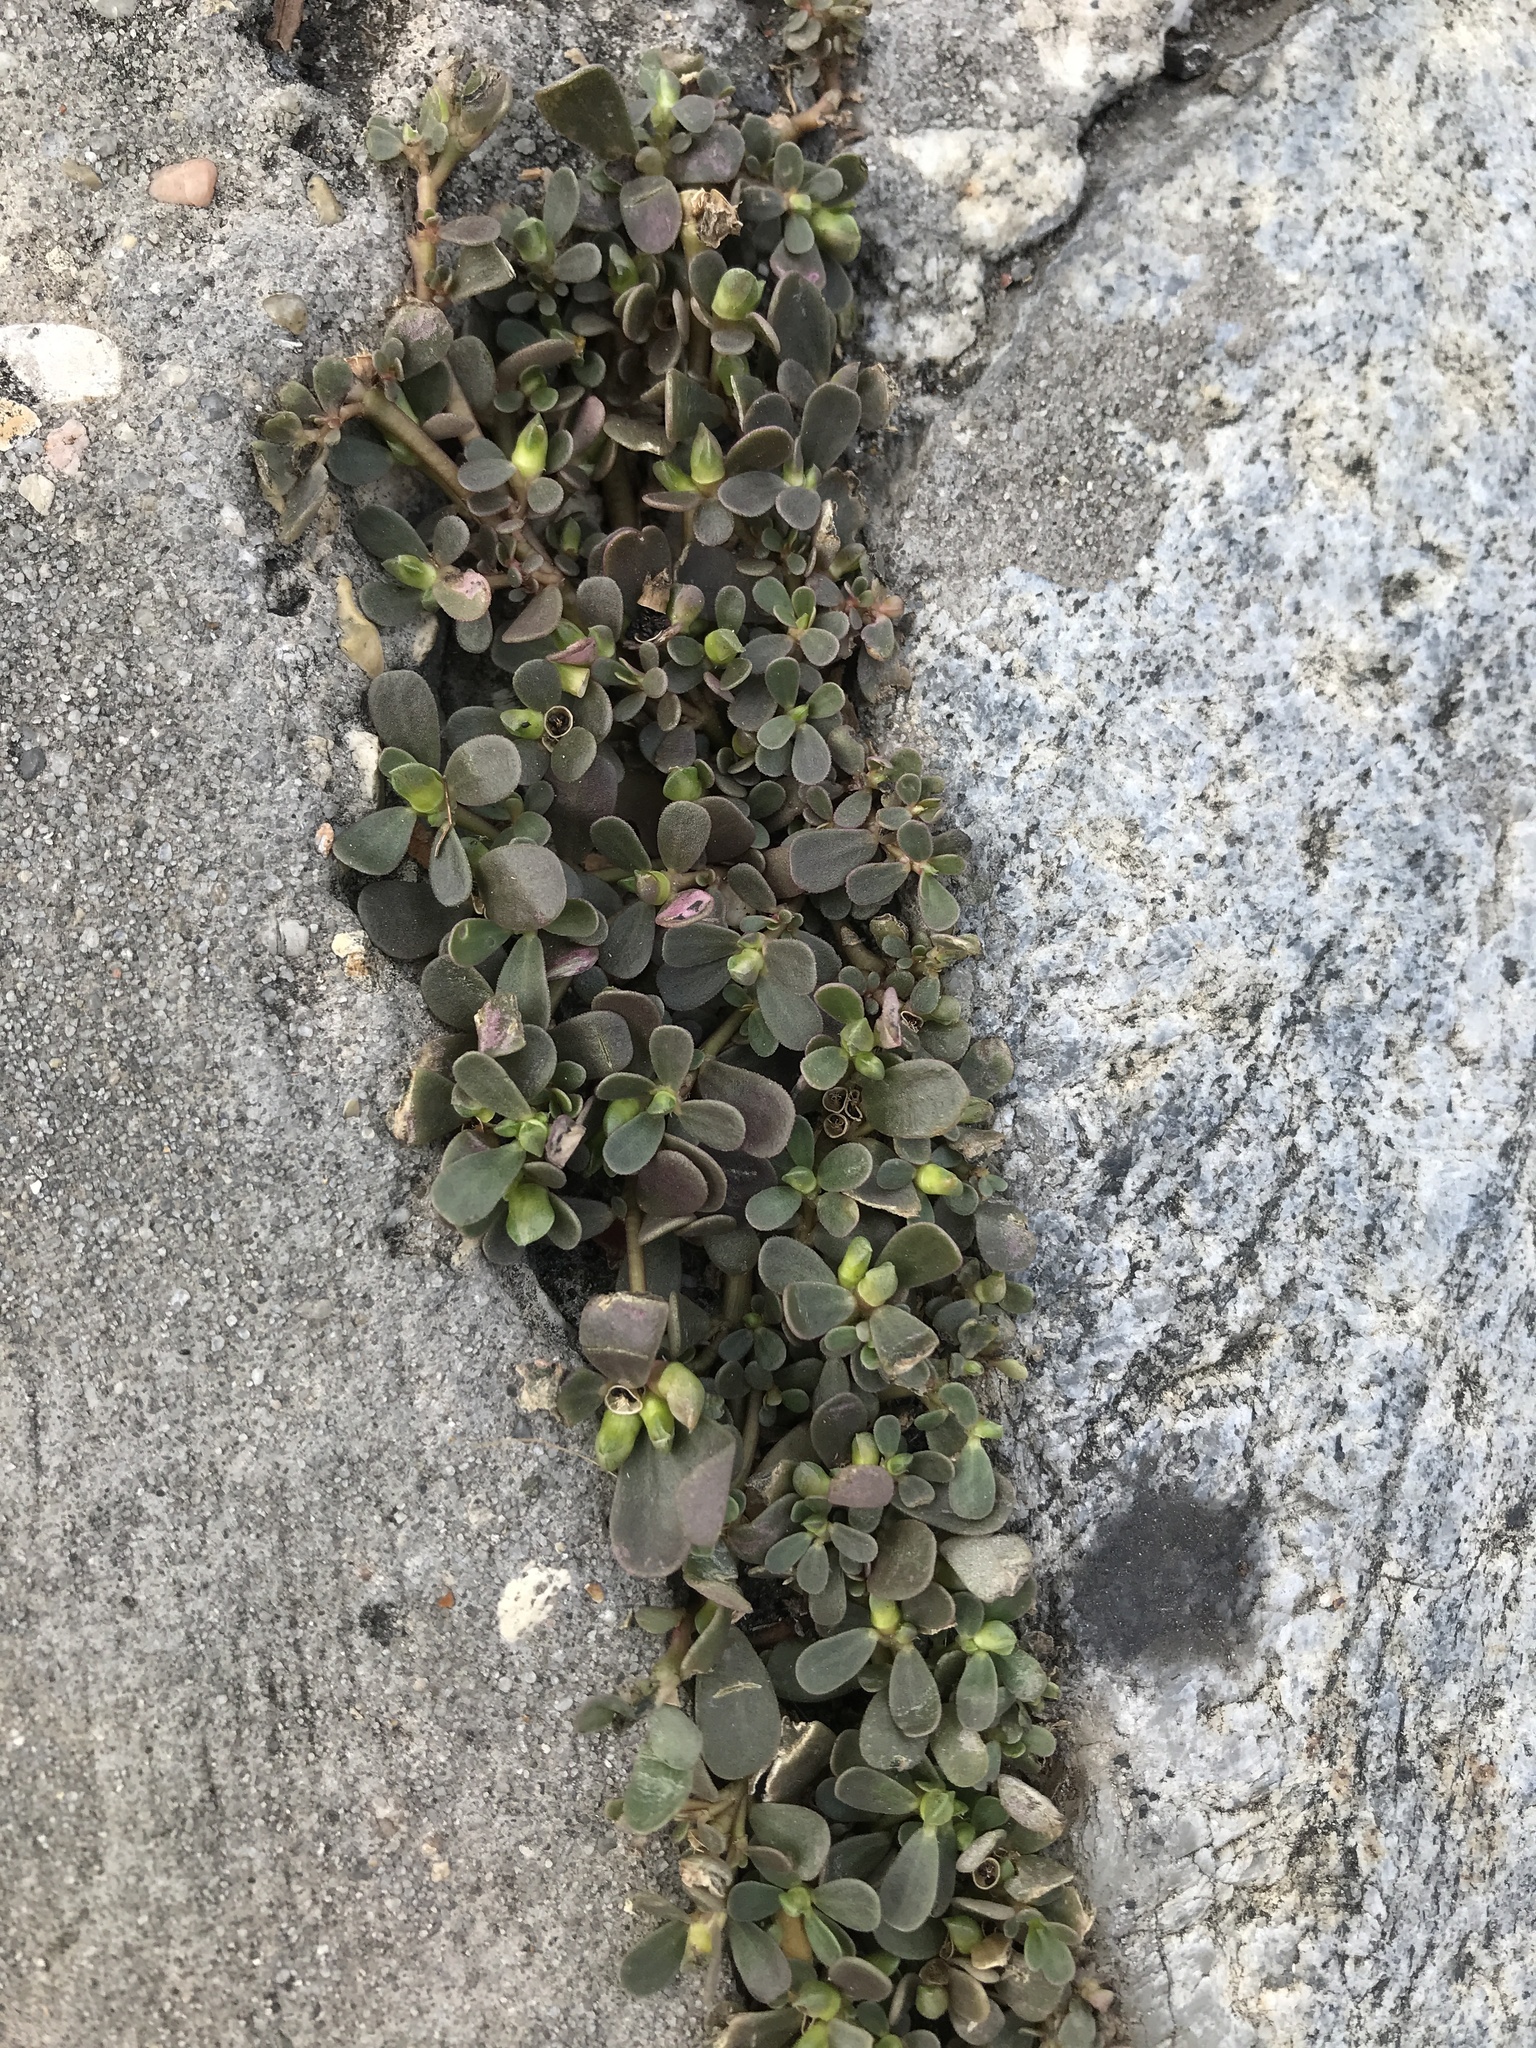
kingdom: Plantae
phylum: Tracheophyta
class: Magnoliopsida
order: Caryophyllales
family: Portulacaceae
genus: Portulaca
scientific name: Portulaca oleracea
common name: Common purslane
